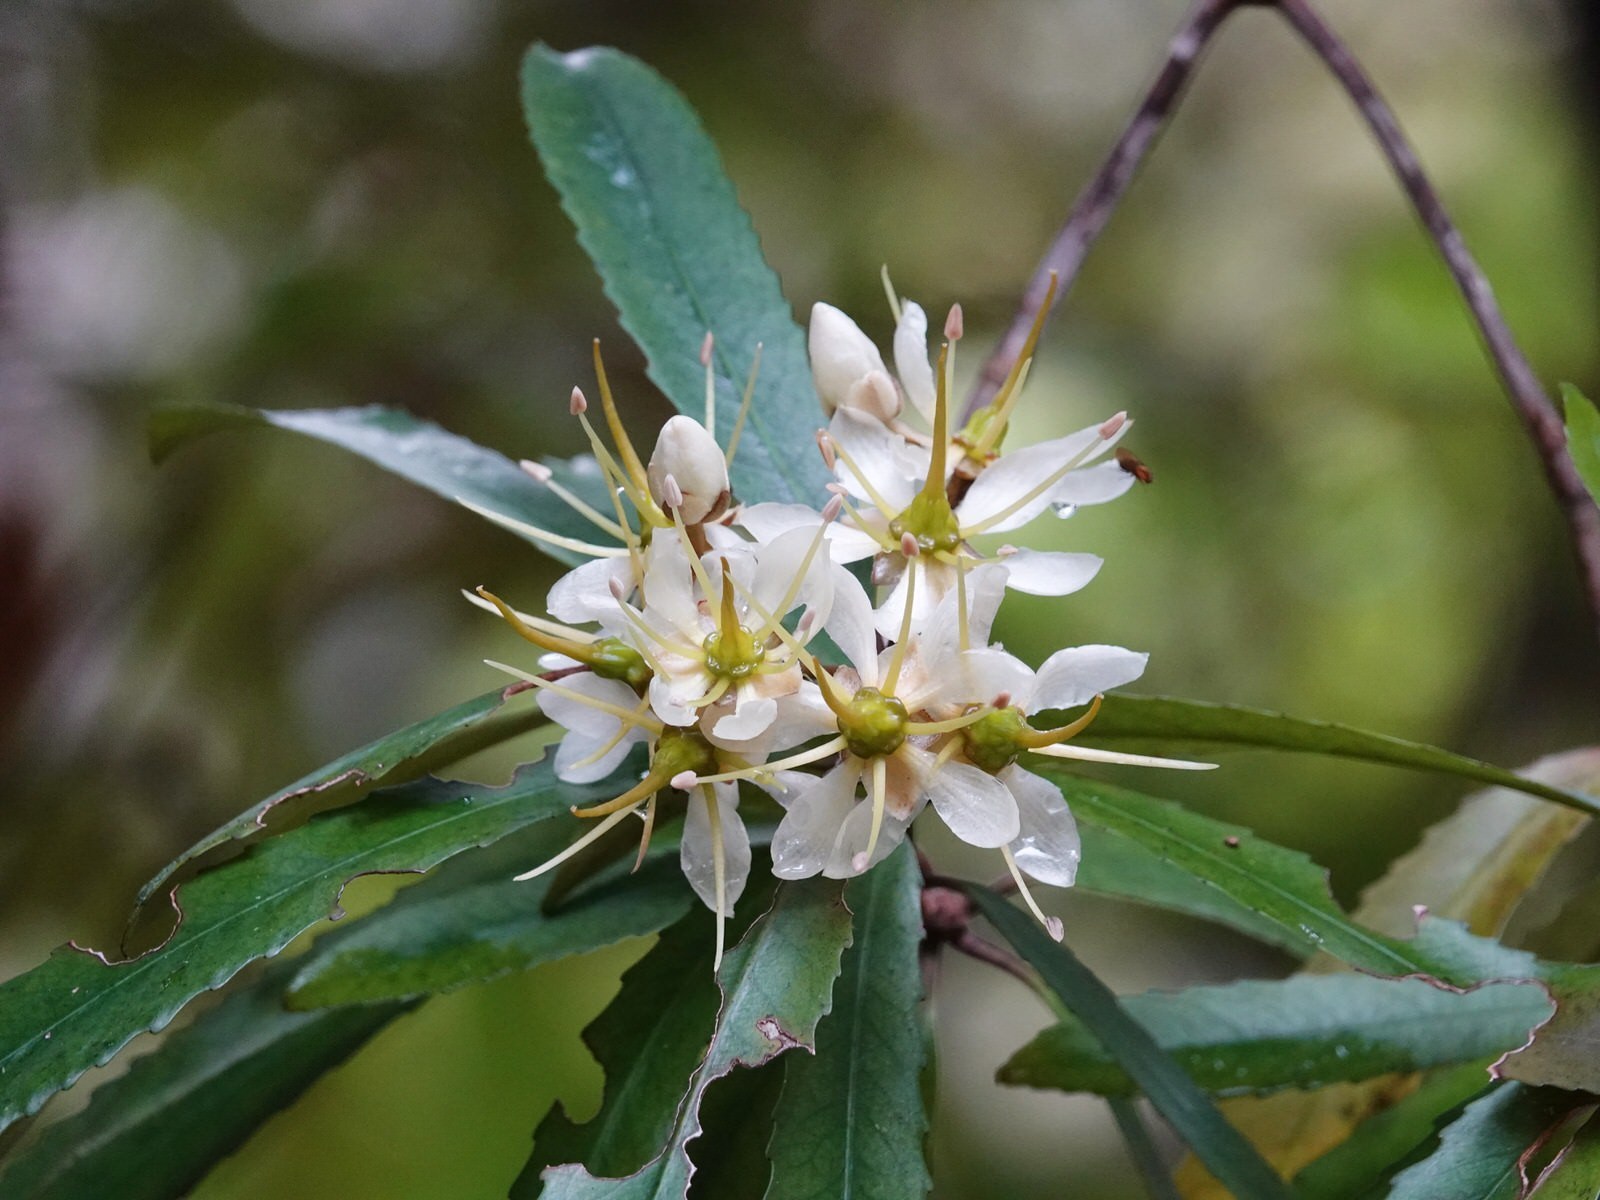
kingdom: Plantae
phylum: Tracheophyta
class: Magnoliopsida
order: Crossosomatales
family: Ixerbaceae
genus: Ixerba
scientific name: Ixerba brexioides
